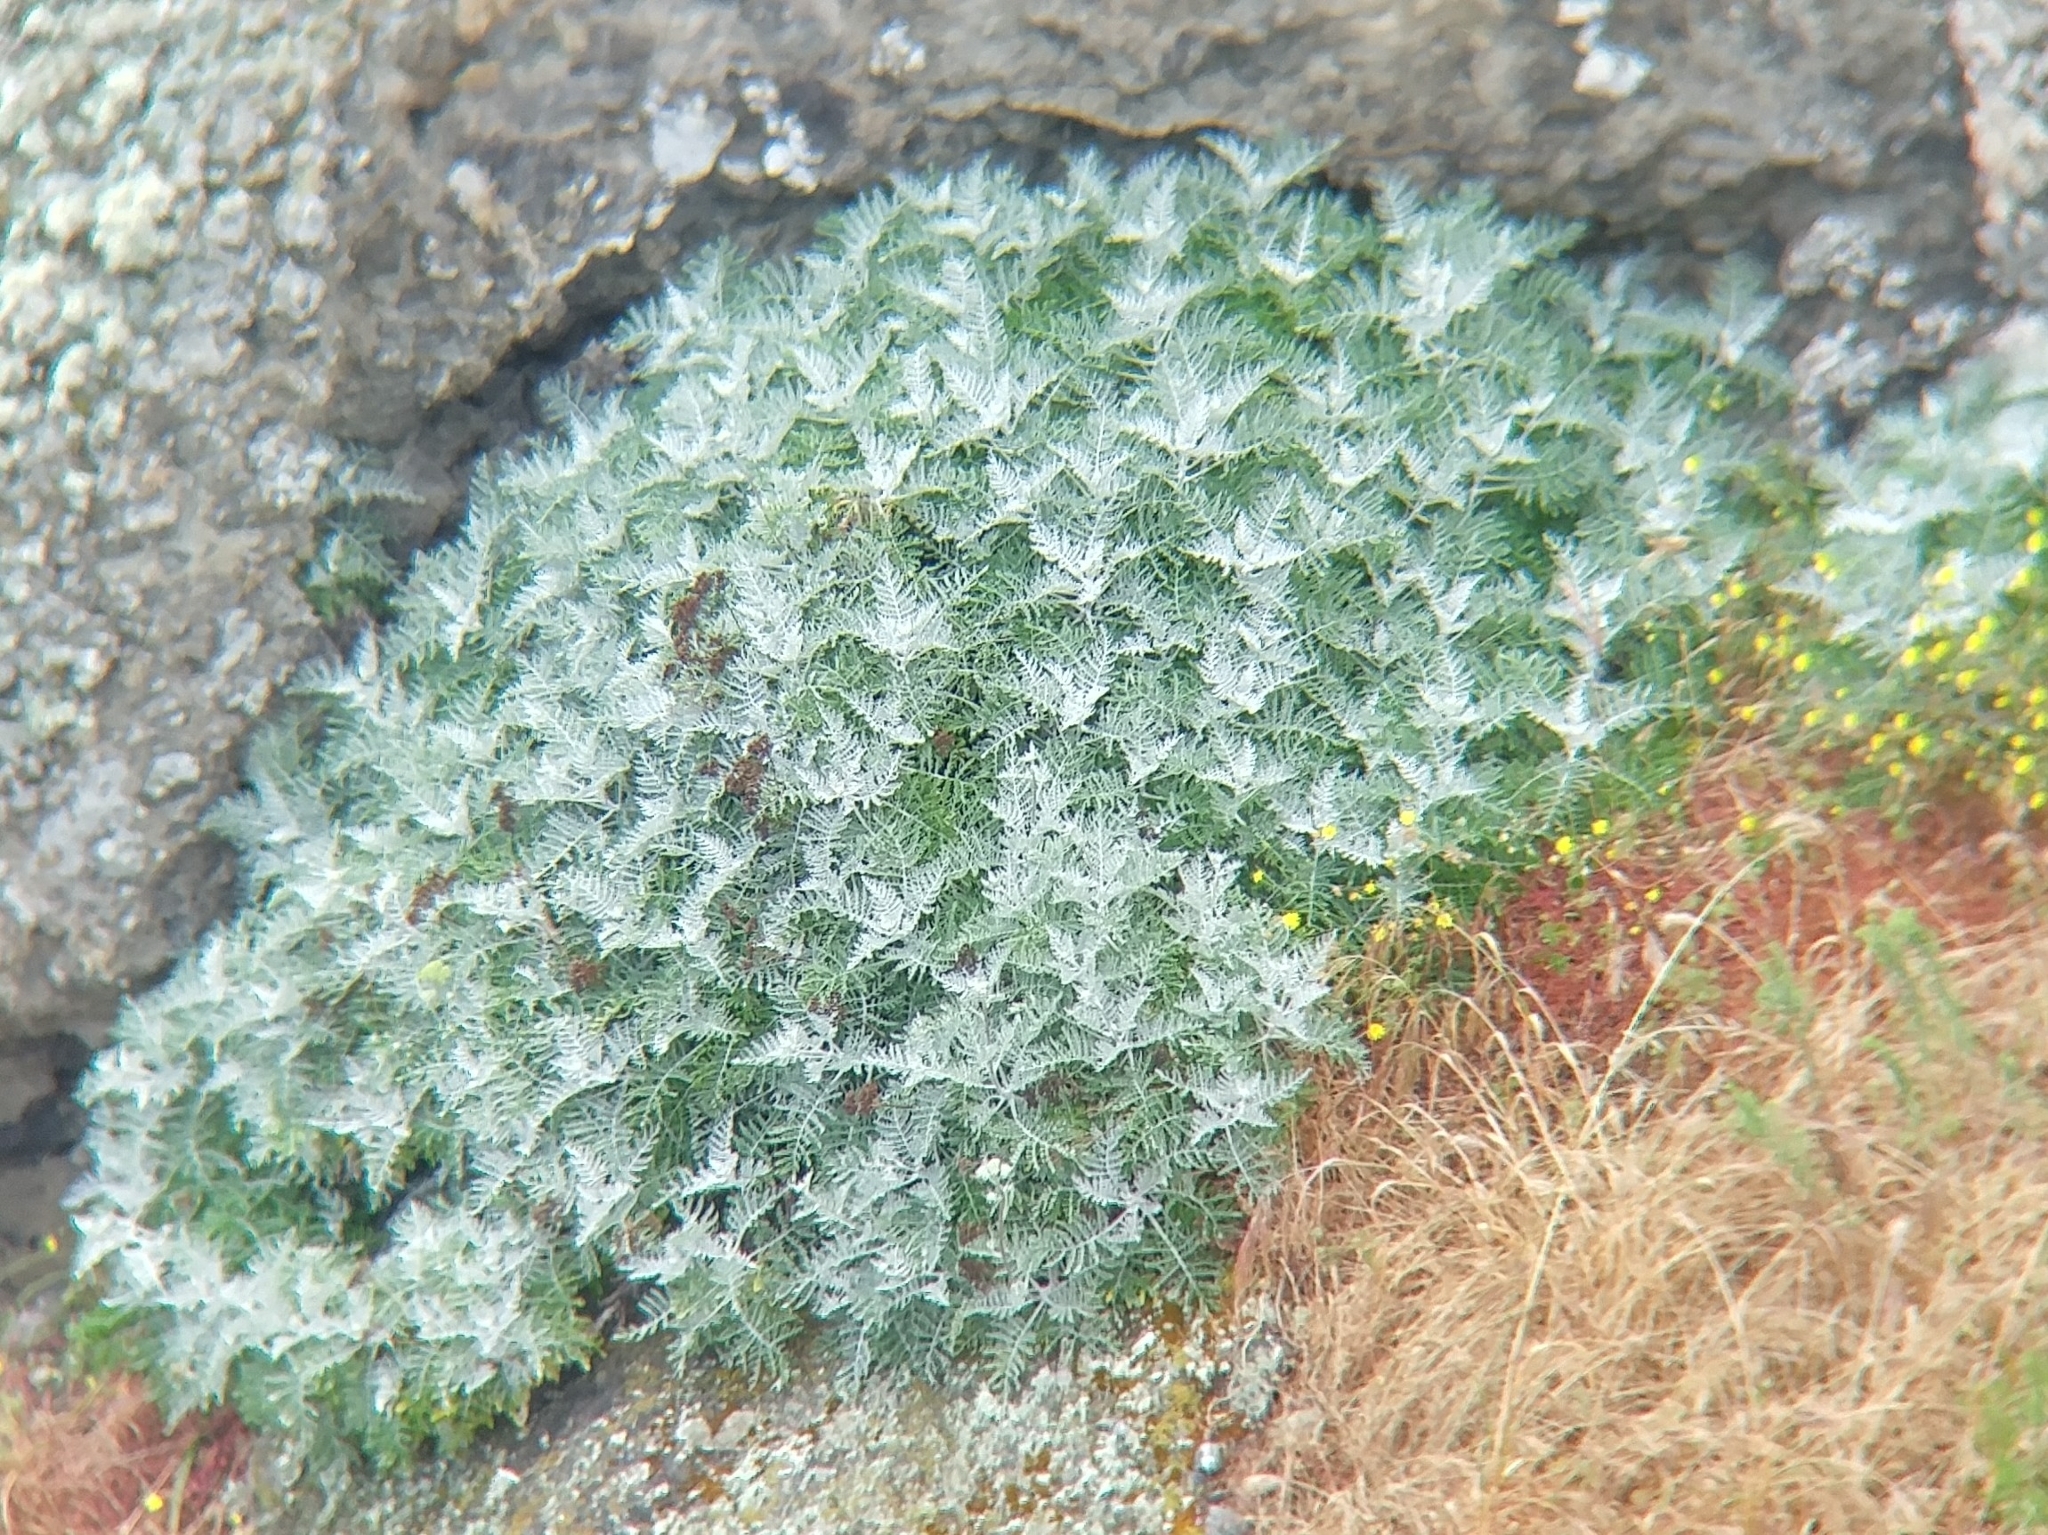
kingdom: Plantae
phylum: Tracheophyta
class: Magnoliopsida
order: Asterales
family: Asteraceae
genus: Constancea
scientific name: Constancea nevinii
